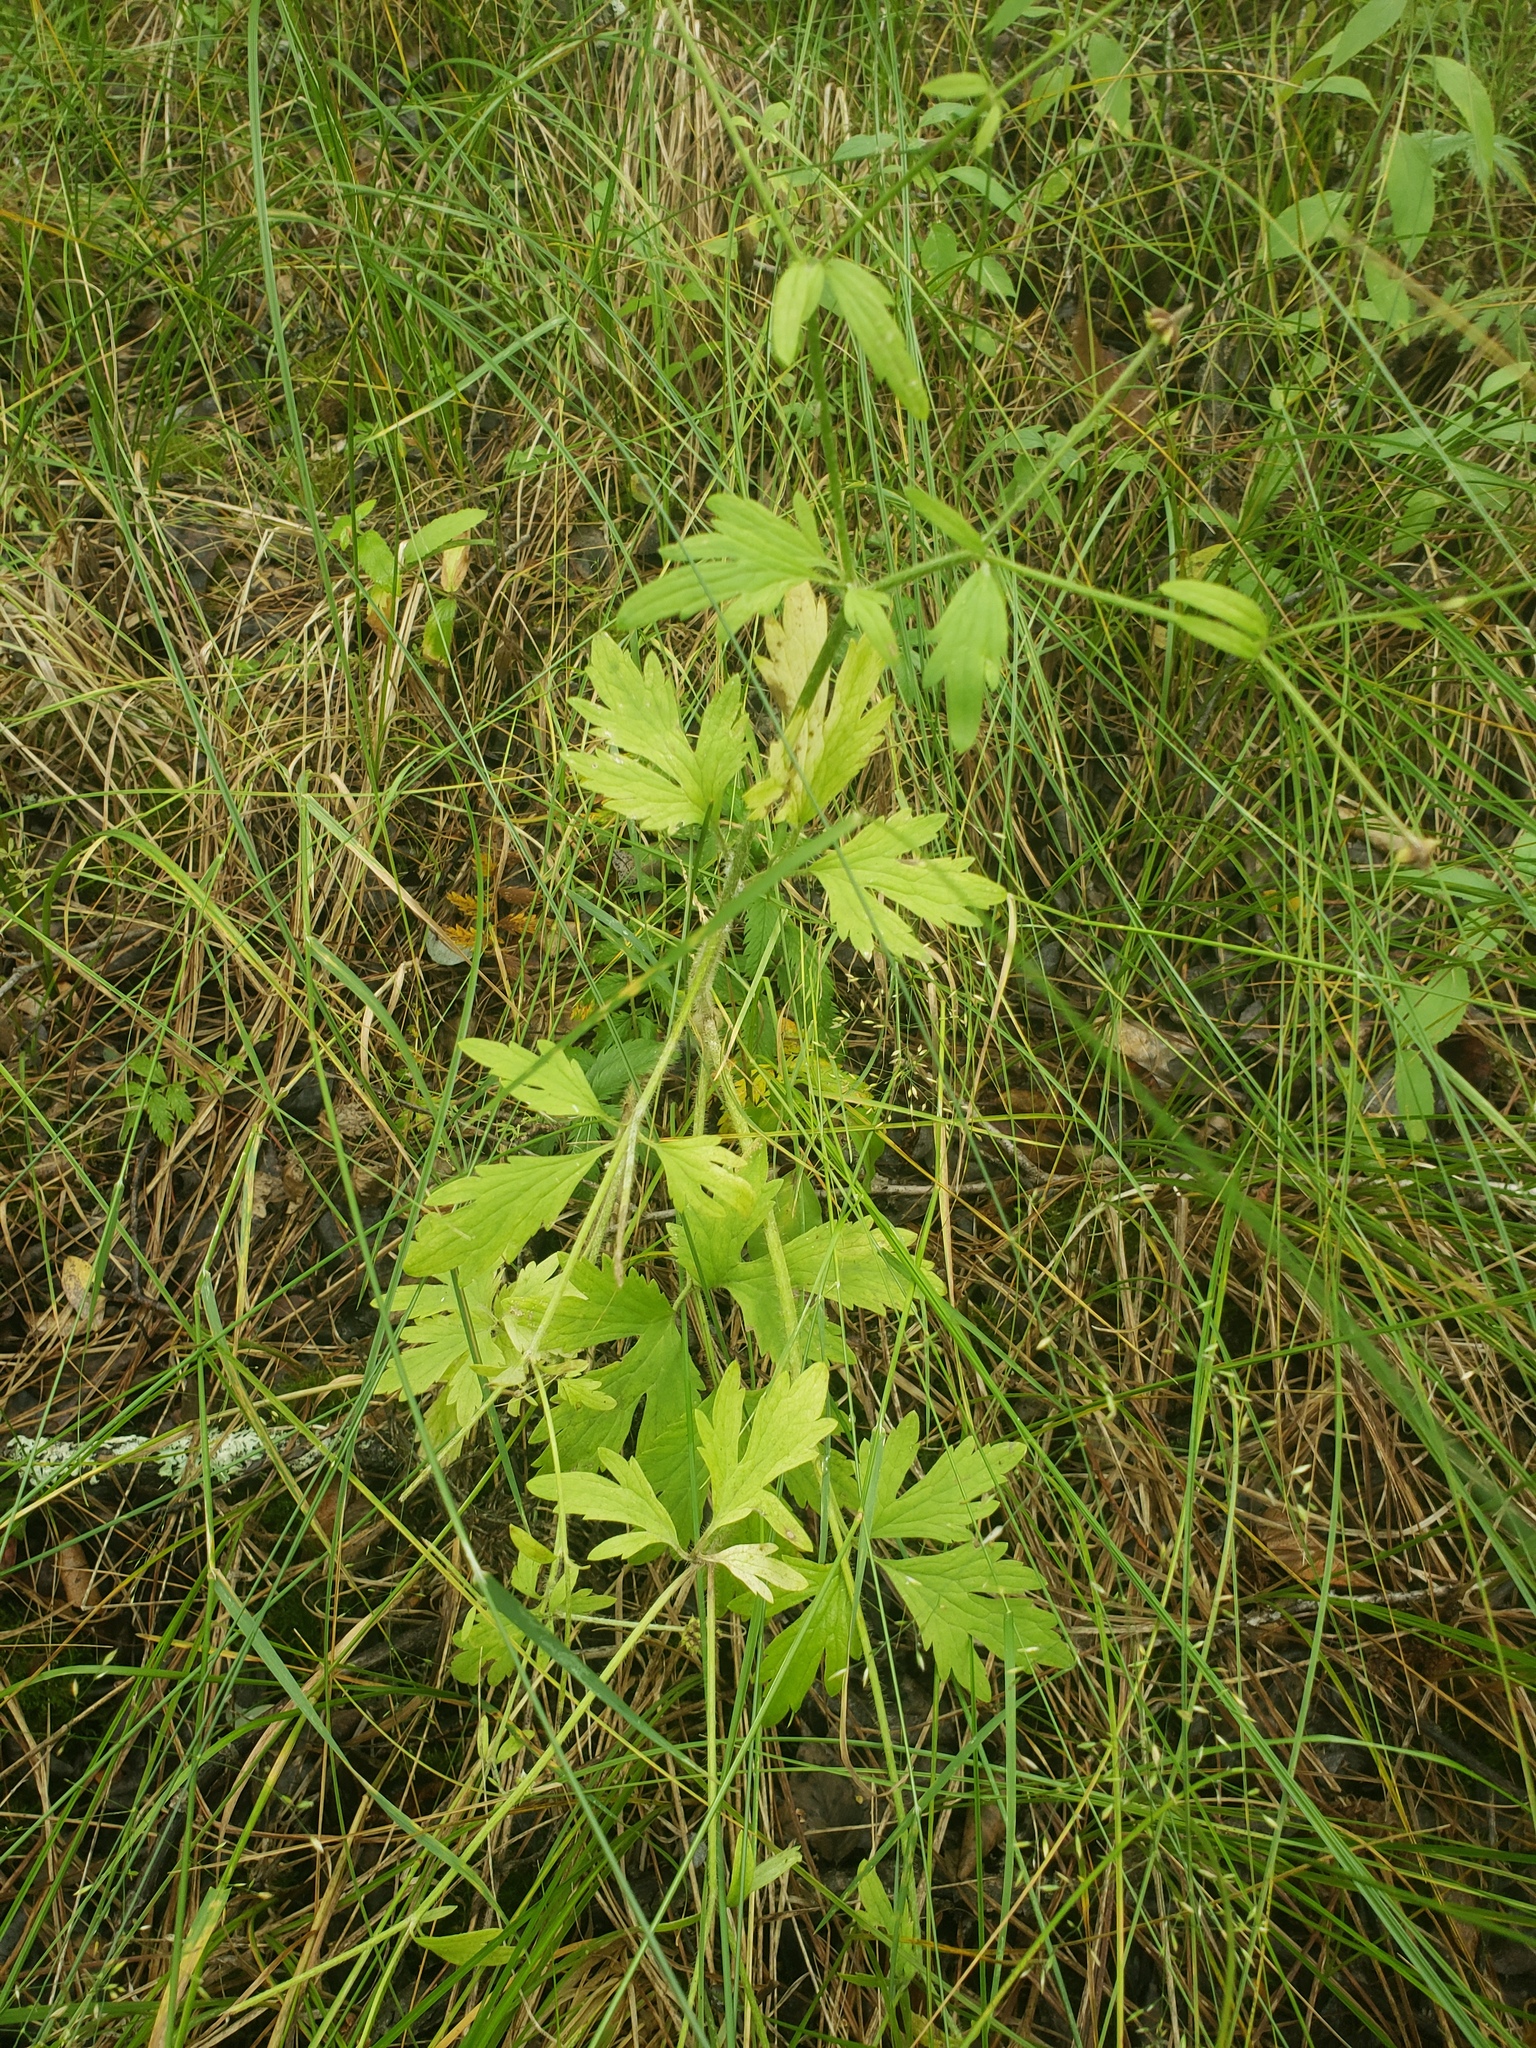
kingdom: Plantae
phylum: Tracheophyta
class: Magnoliopsida
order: Ranunculales
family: Ranunculaceae
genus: Ranunculus
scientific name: Ranunculus hispidus
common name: Bristly buttercup
